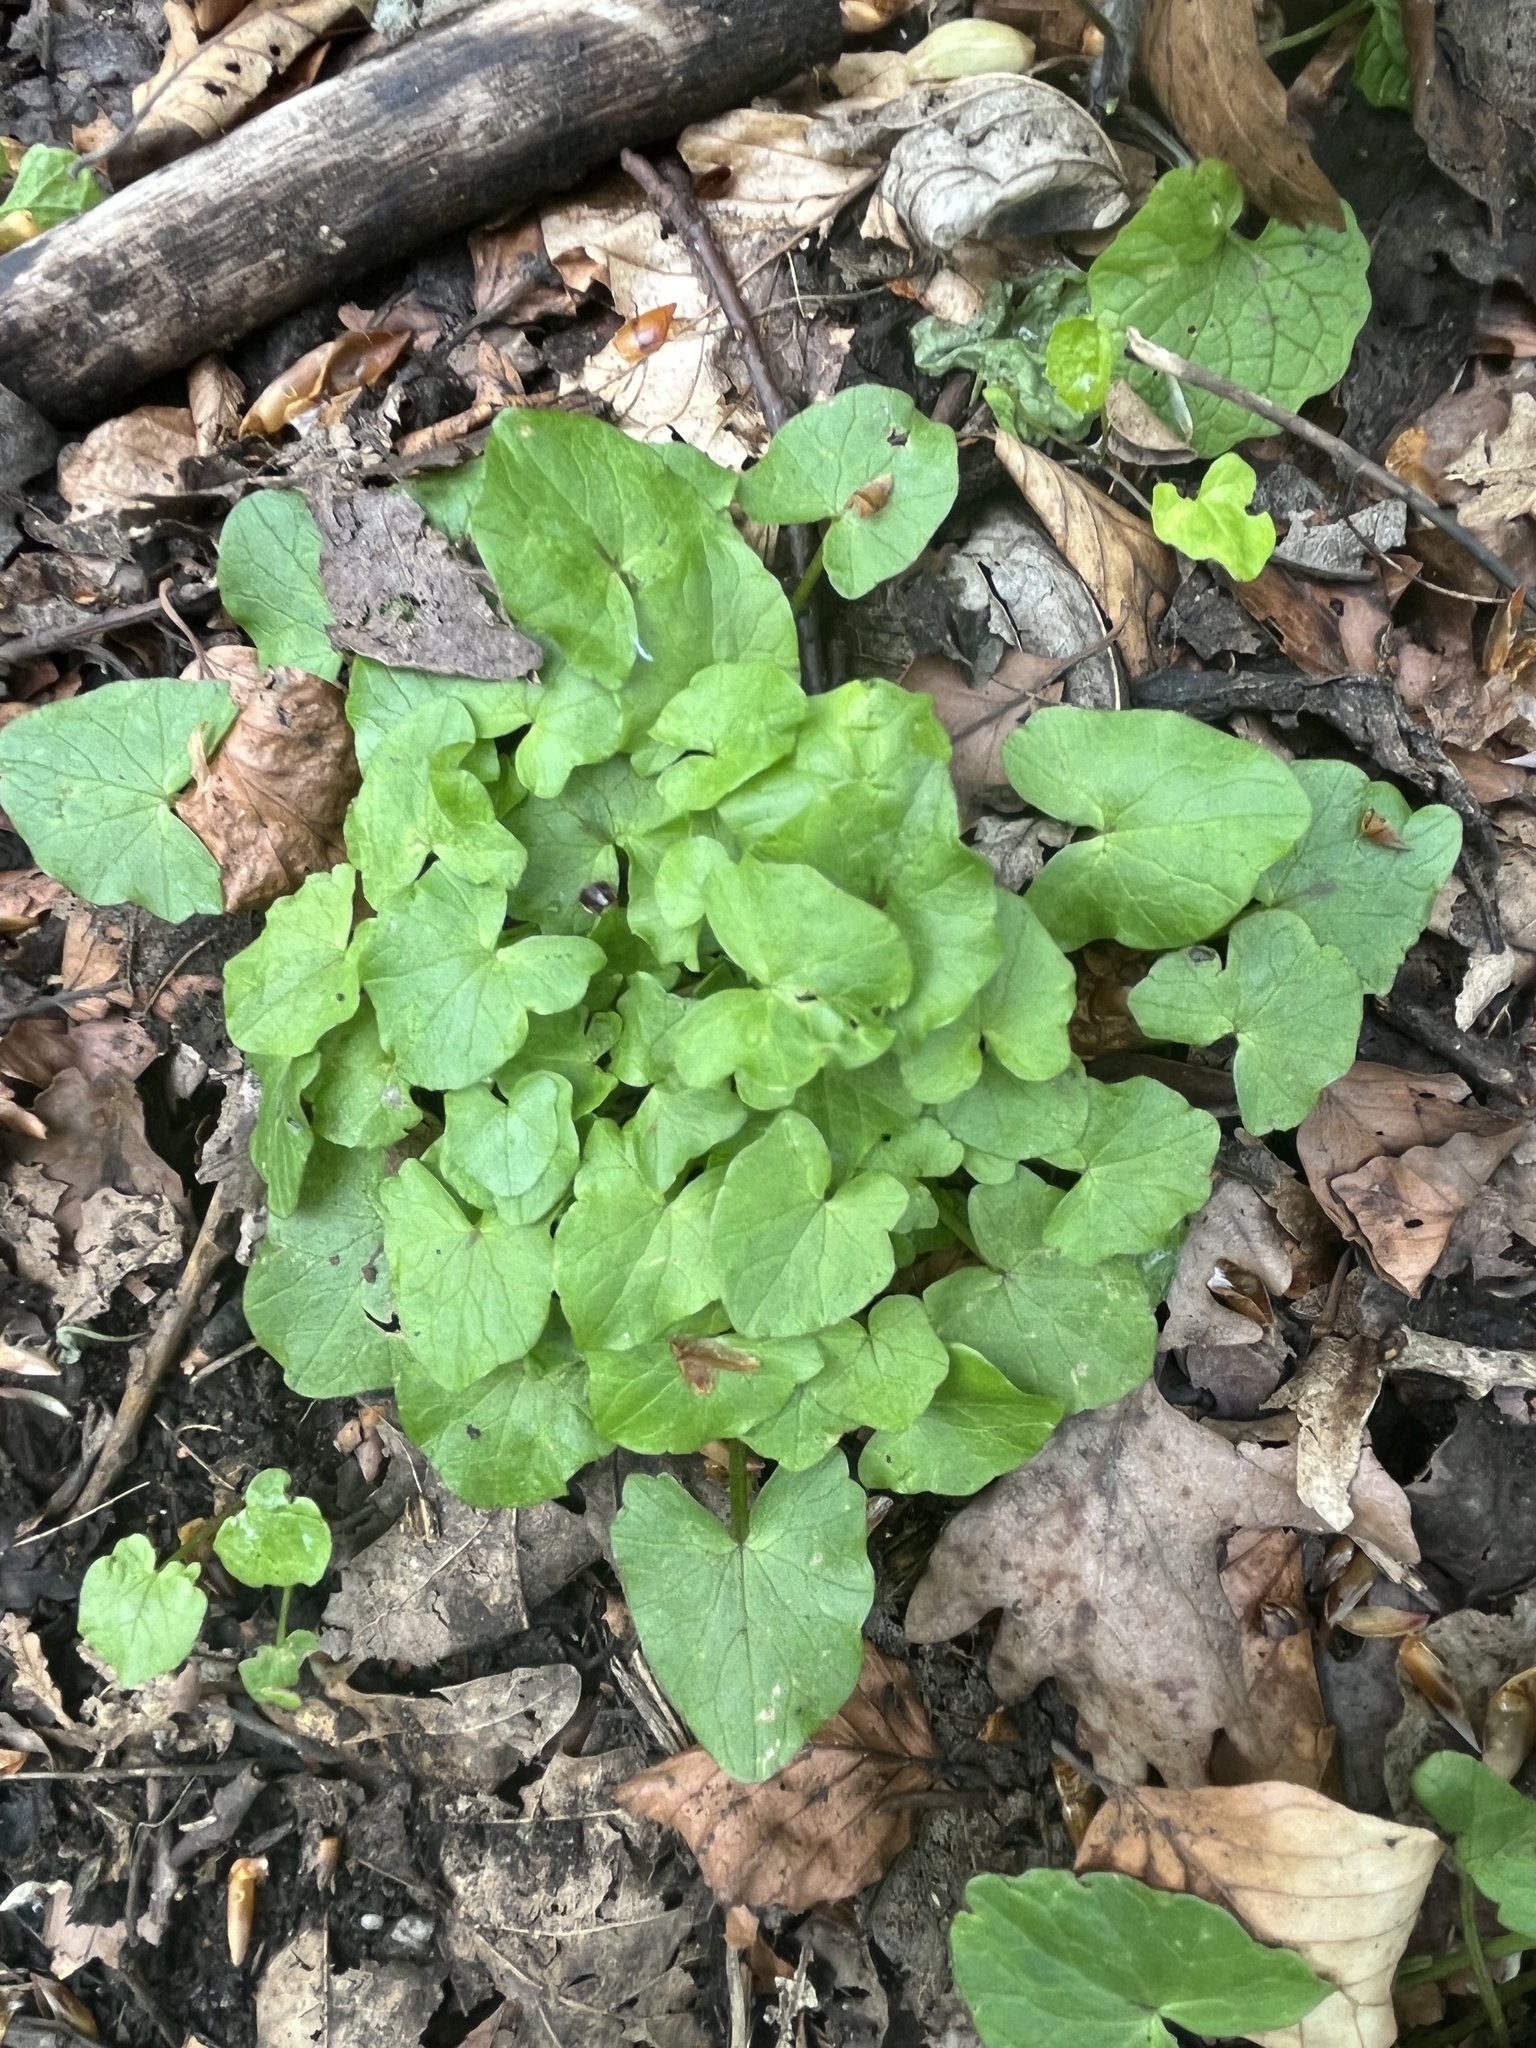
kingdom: Plantae
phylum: Tracheophyta
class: Magnoliopsida
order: Ranunculales
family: Ranunculaceae
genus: Ficaria
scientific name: Ficaria verna
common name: Lesser celandine
